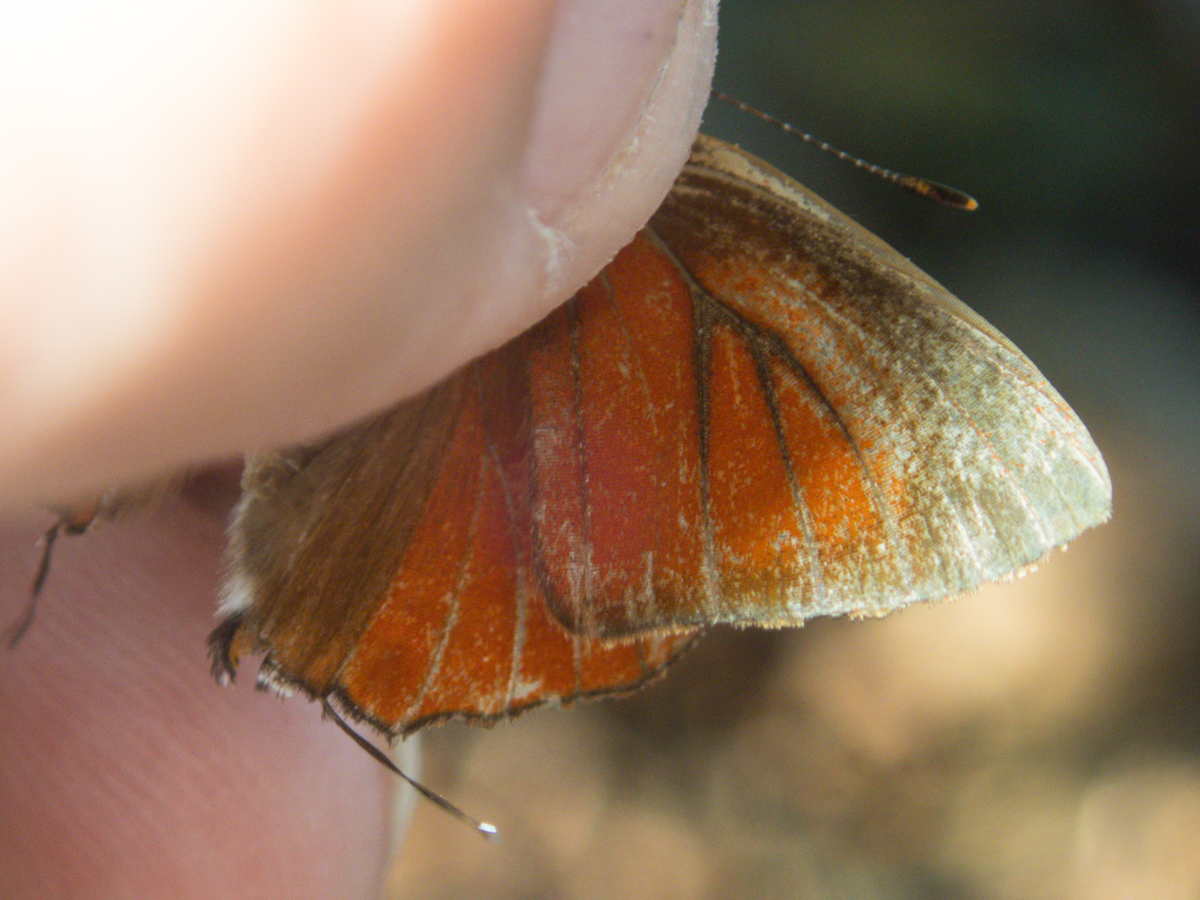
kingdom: Animalia
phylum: Arthropoda
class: Insecta
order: Lepidoptera
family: Lycaenidae
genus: Rapala
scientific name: Rapala iarbas
